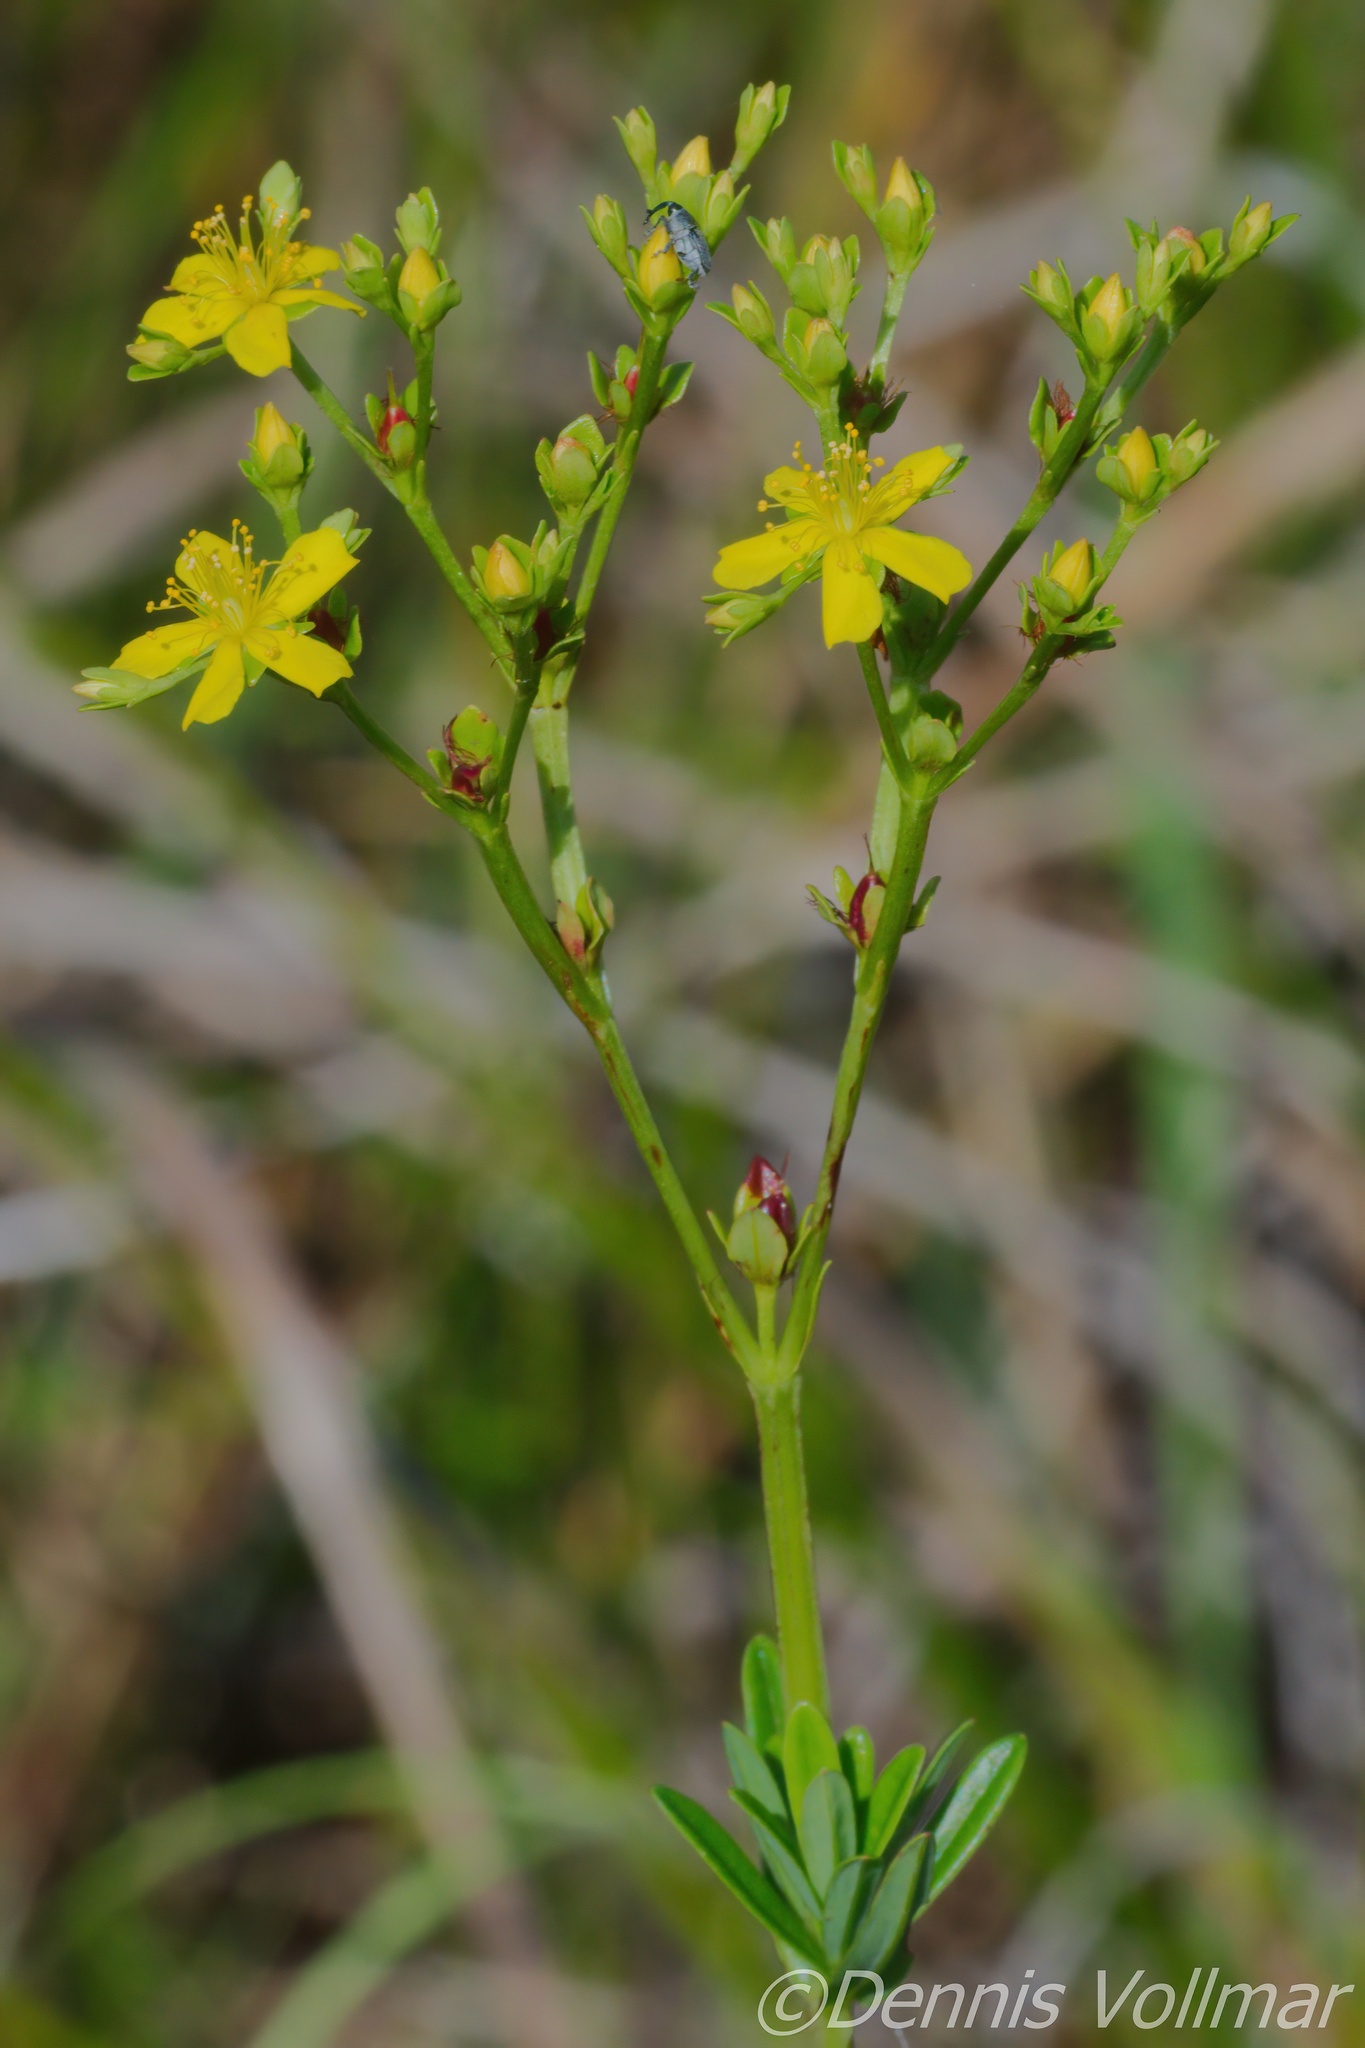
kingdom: Plantae
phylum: Tracheophyta
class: Magnoliopsida
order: Malpighiales
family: Hypericaceae
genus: Hypericum
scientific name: Hypericum cistifolium
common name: Round-pod st. john's-wort
